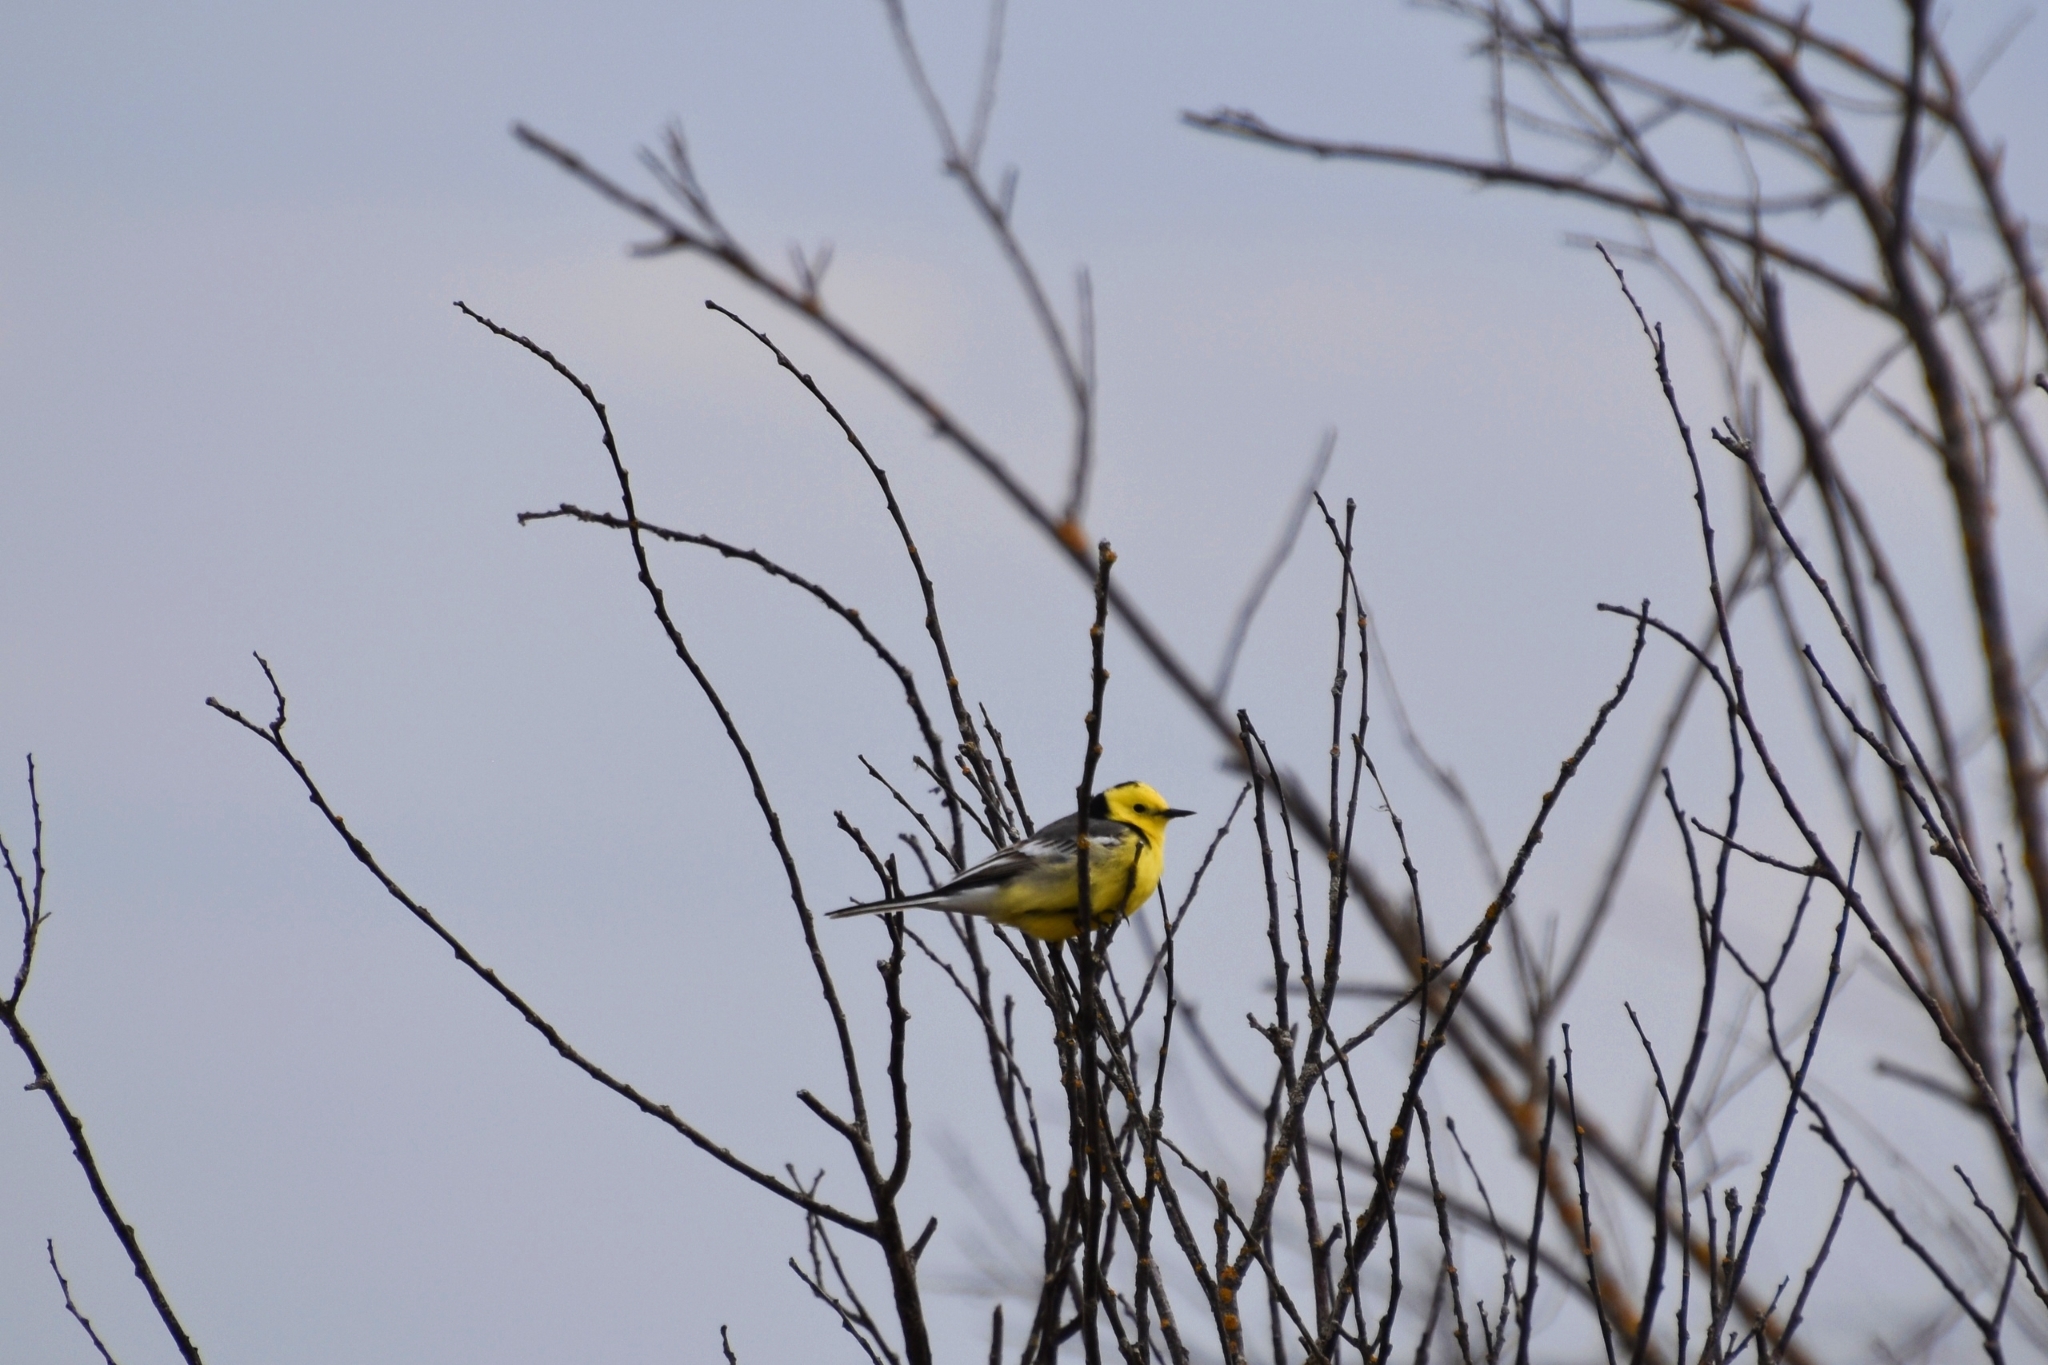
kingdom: Animalia
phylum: Chordata
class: Aves
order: Passeriformes
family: Motacillidae
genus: Motacilla
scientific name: Motacilla citreola
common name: Citrine wagtail
